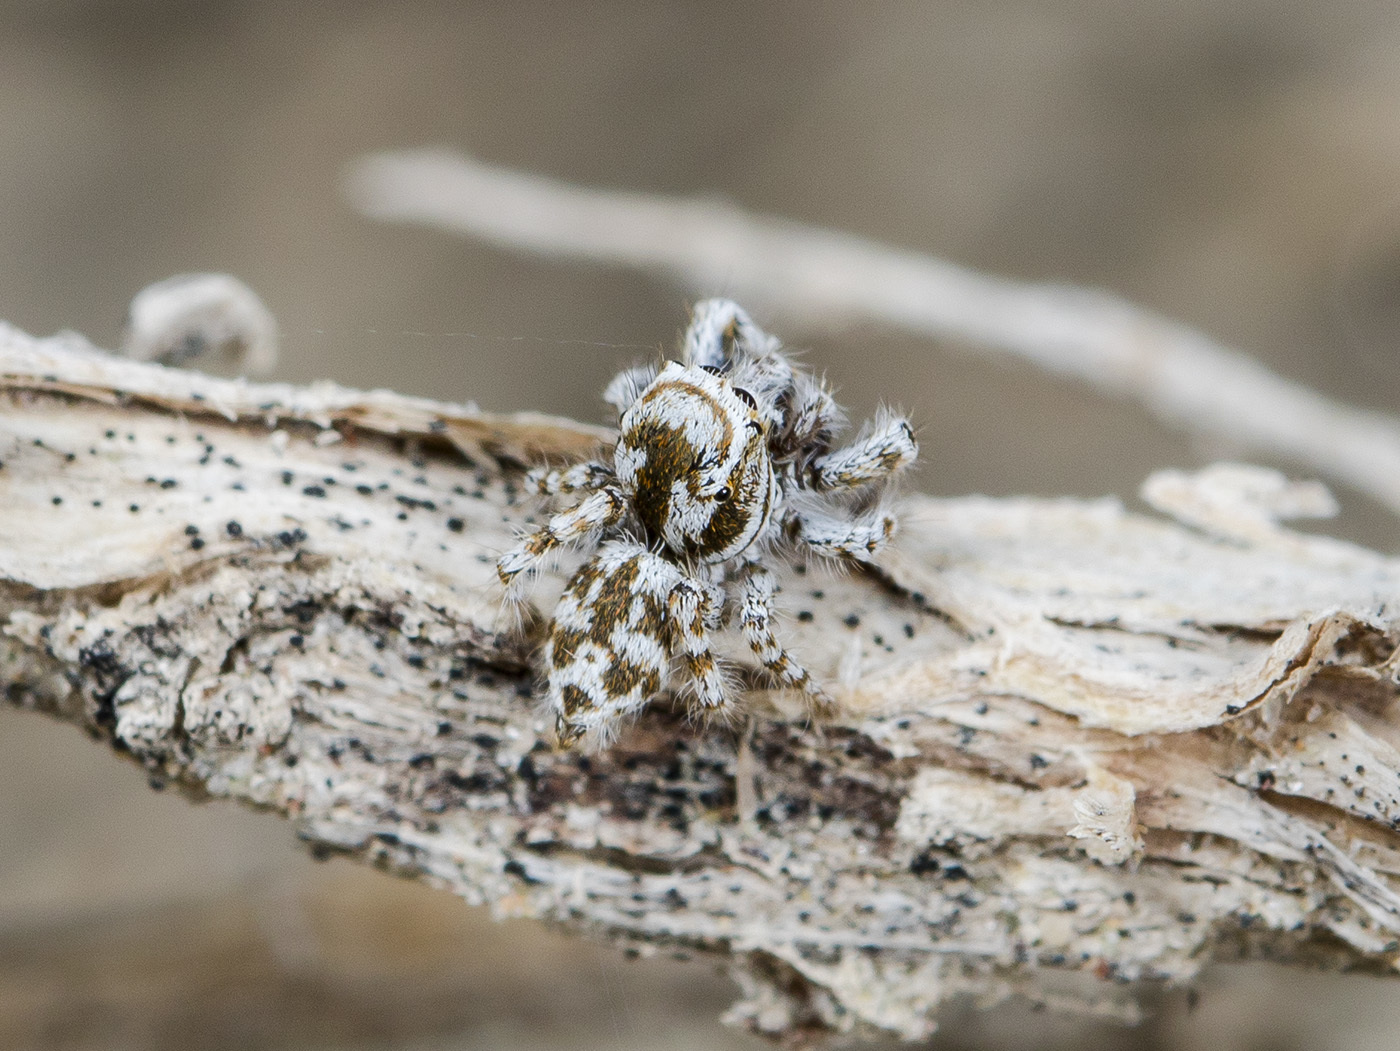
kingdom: Animalia
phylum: Arthropoda
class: Arachnida
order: Araneae
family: Salticidae
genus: Pseudomogrus
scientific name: Pseudomogrus dalaensis
